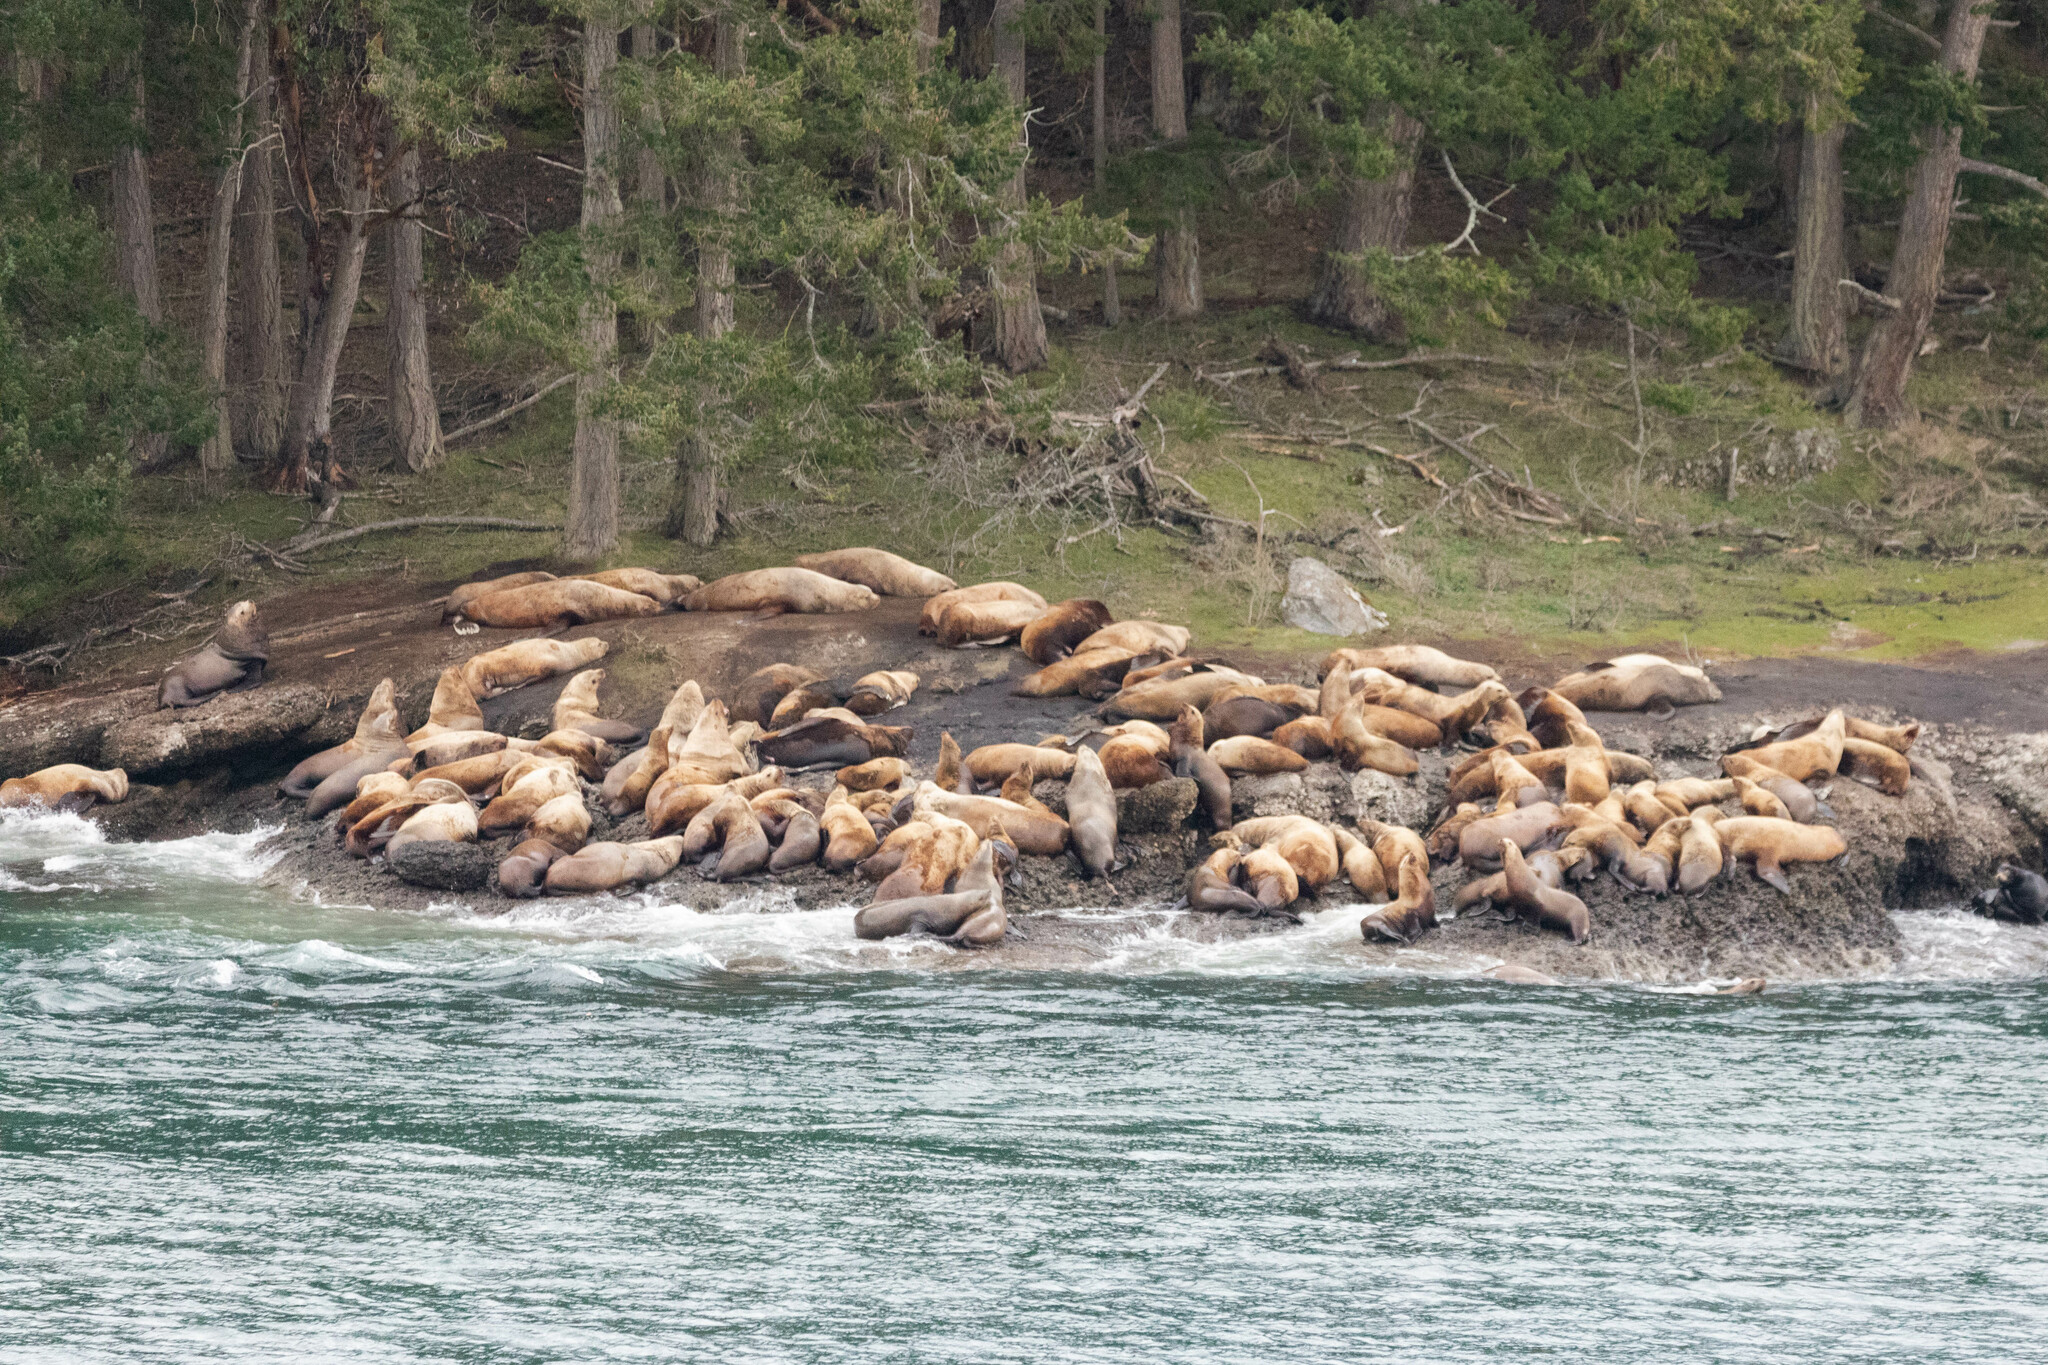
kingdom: Animalia
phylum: Chordata
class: Mammalia
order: Carnivora
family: Otariidae
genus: Eumetopias
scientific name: Eumetopias jubatus
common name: Steller sea lion
